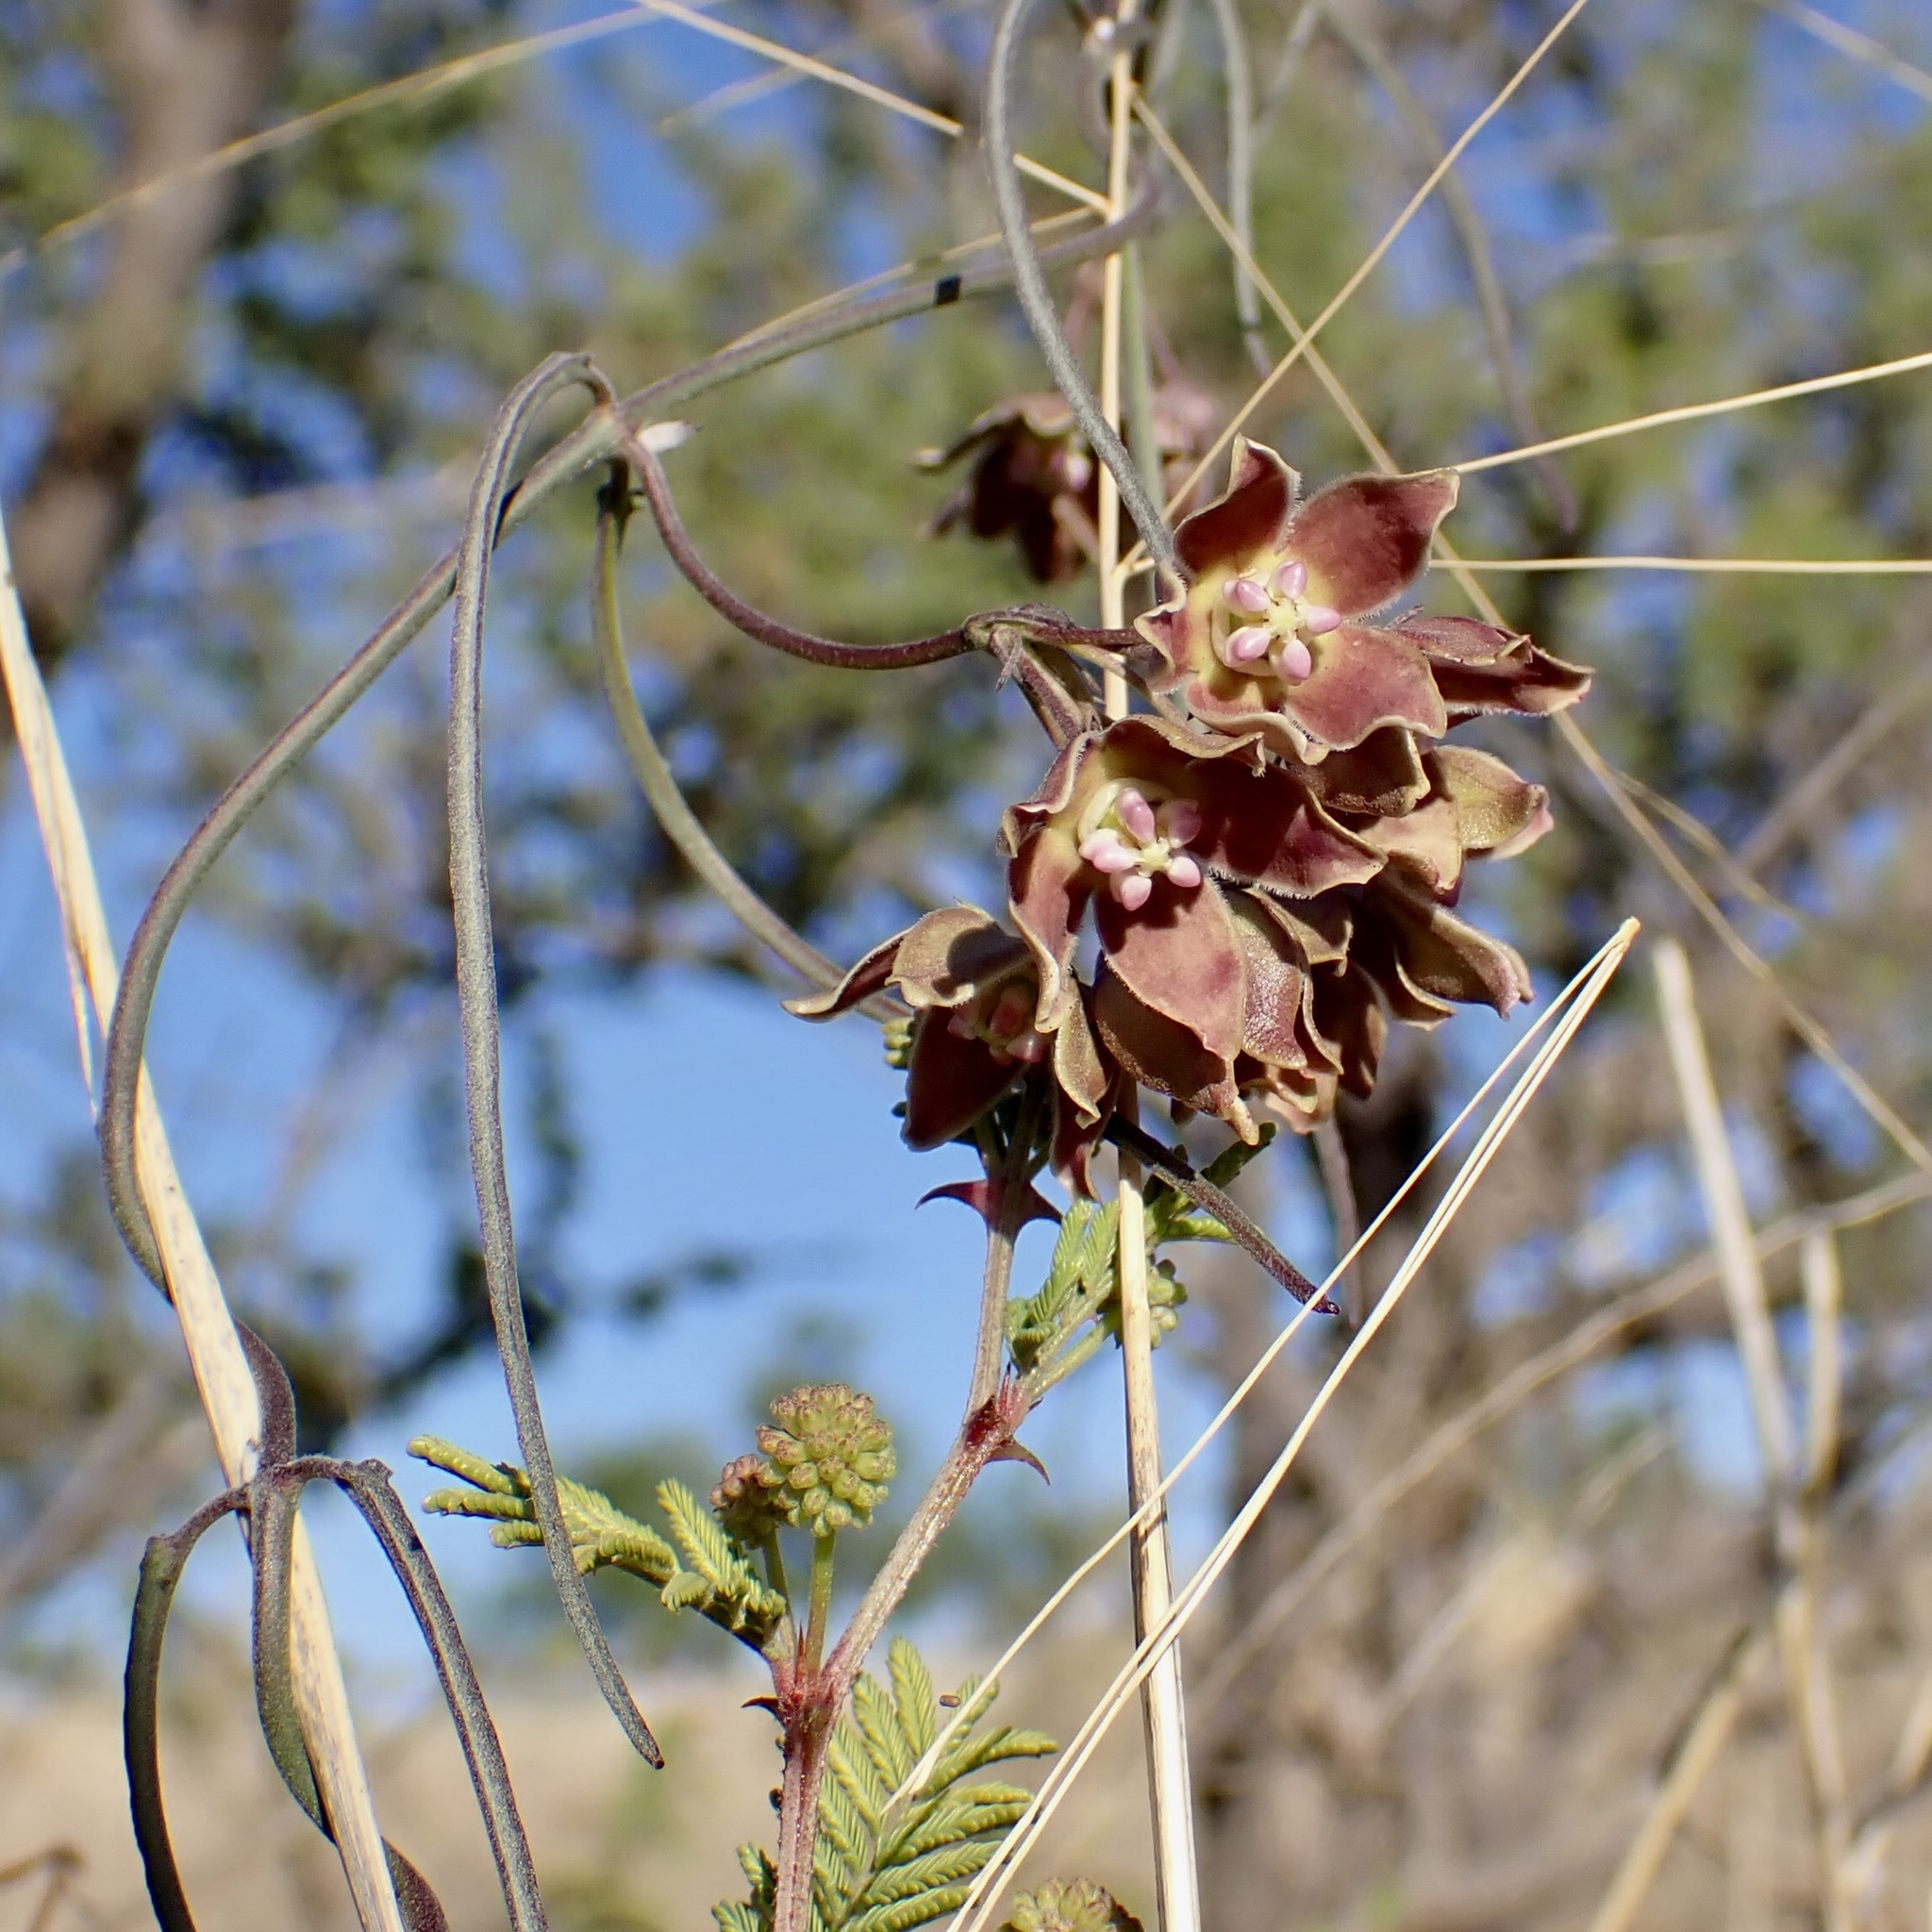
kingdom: Plantae
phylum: Tracheophyta
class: Magnoliopsida
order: Gentianales
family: Apocynaceae
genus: Funastrum
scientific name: Funastrum crispum
